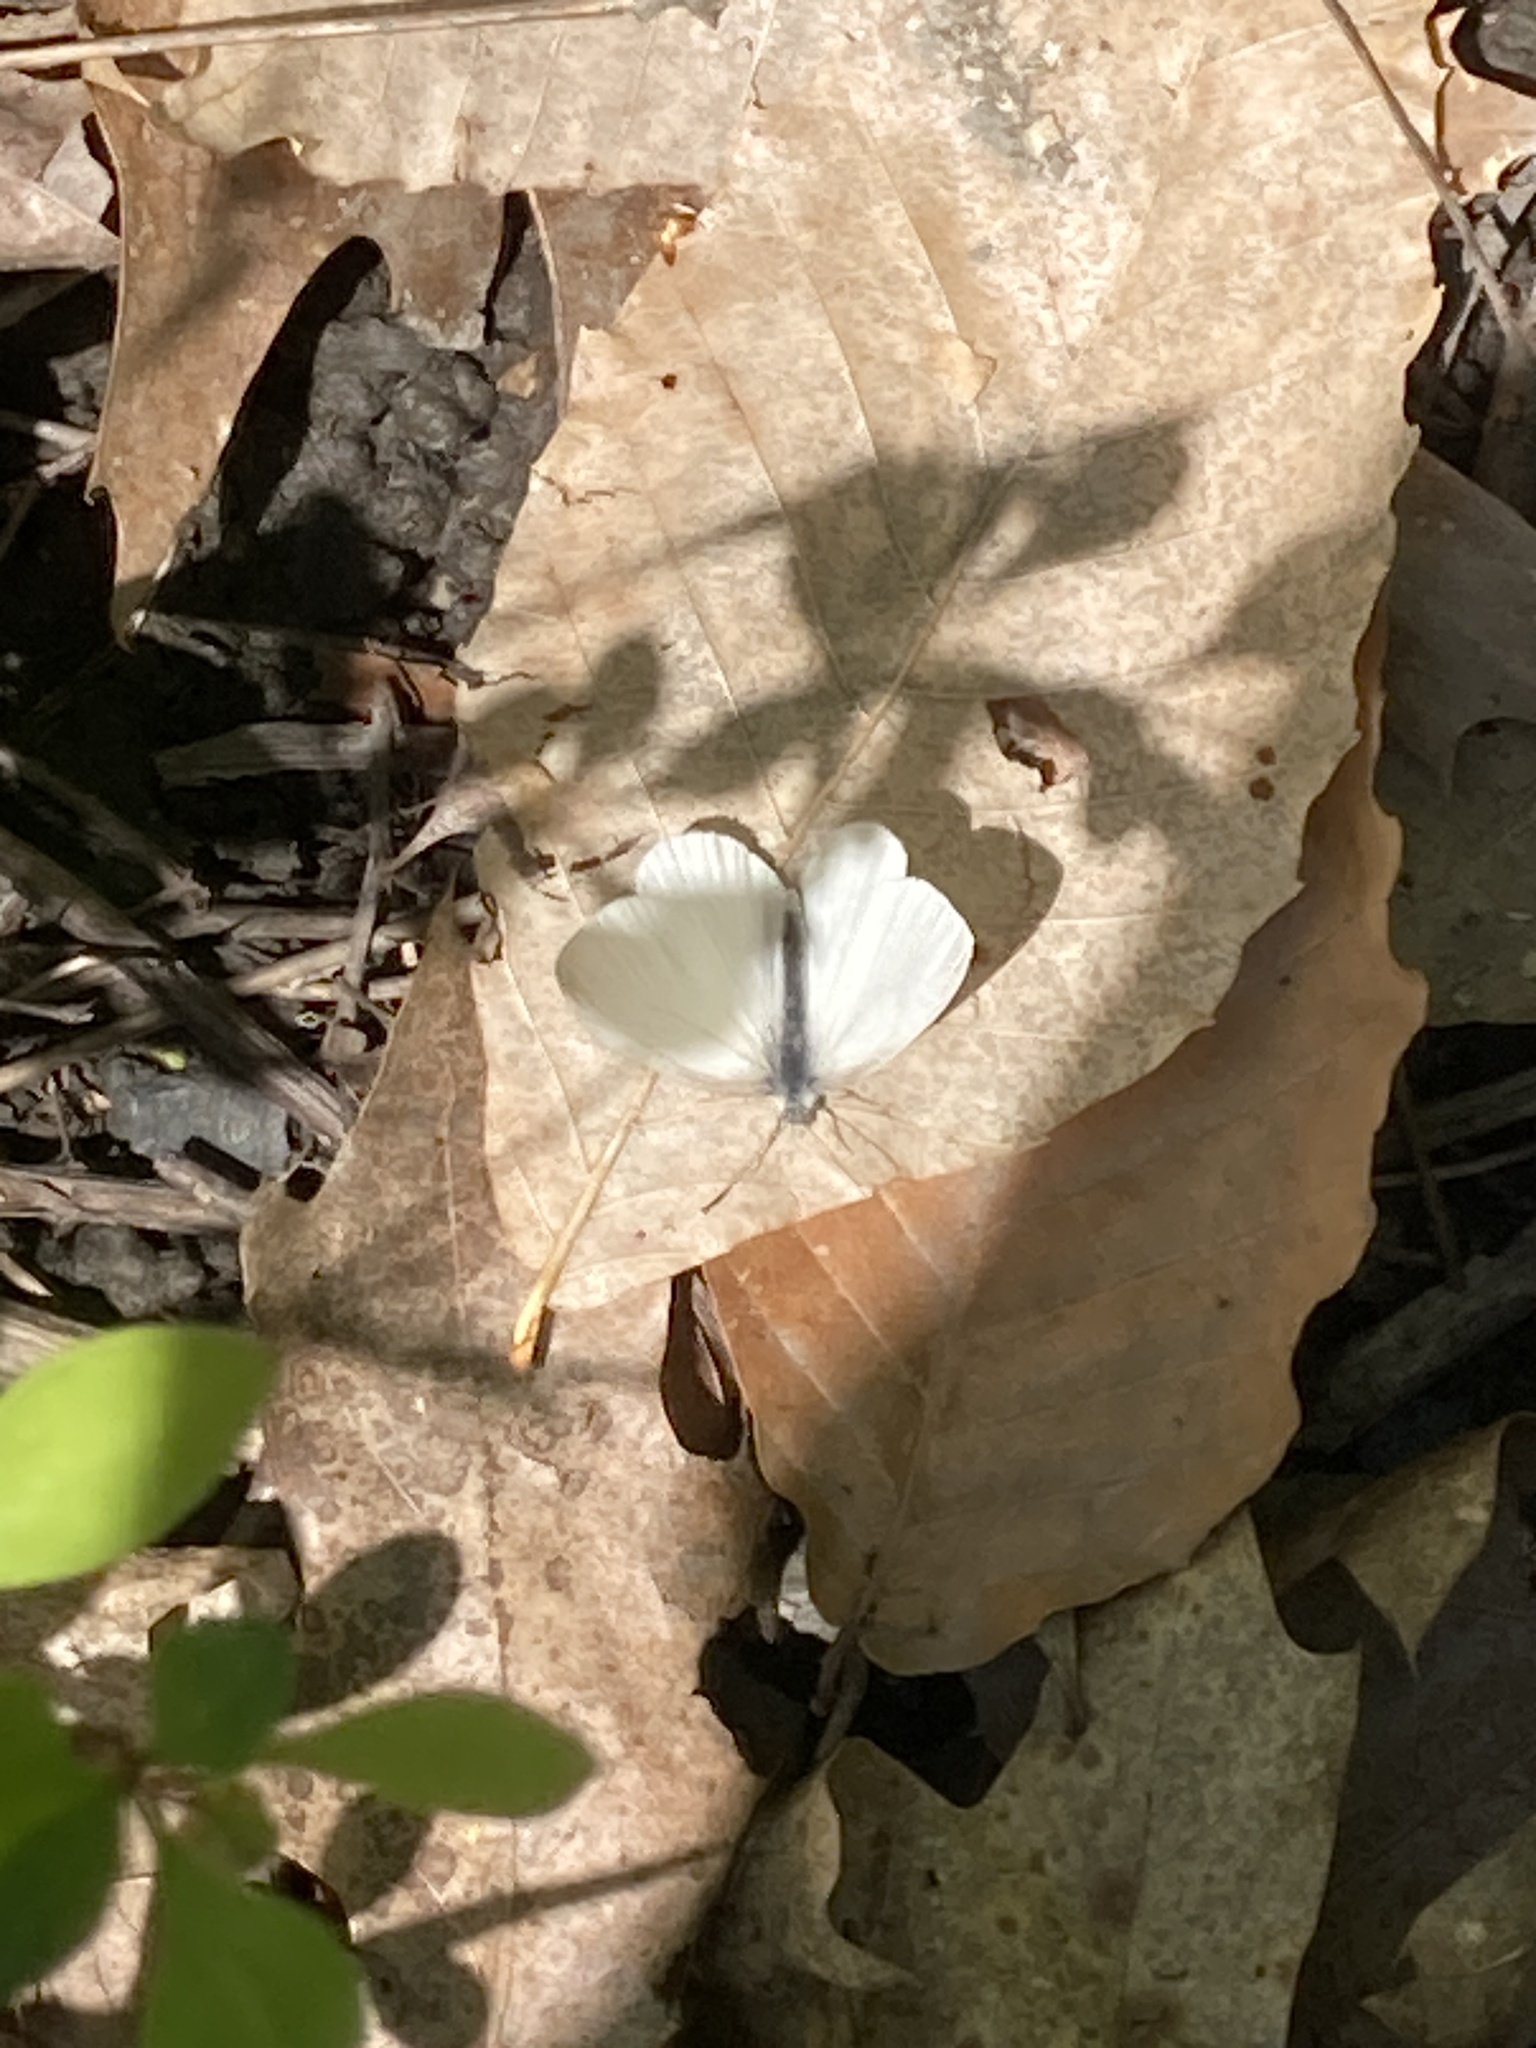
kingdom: Animalia
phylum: Arthropoda
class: Insecta
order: Lepidoptera
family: Pieridae
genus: Pieris
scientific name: Pieris virginiensis
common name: West virginia white
